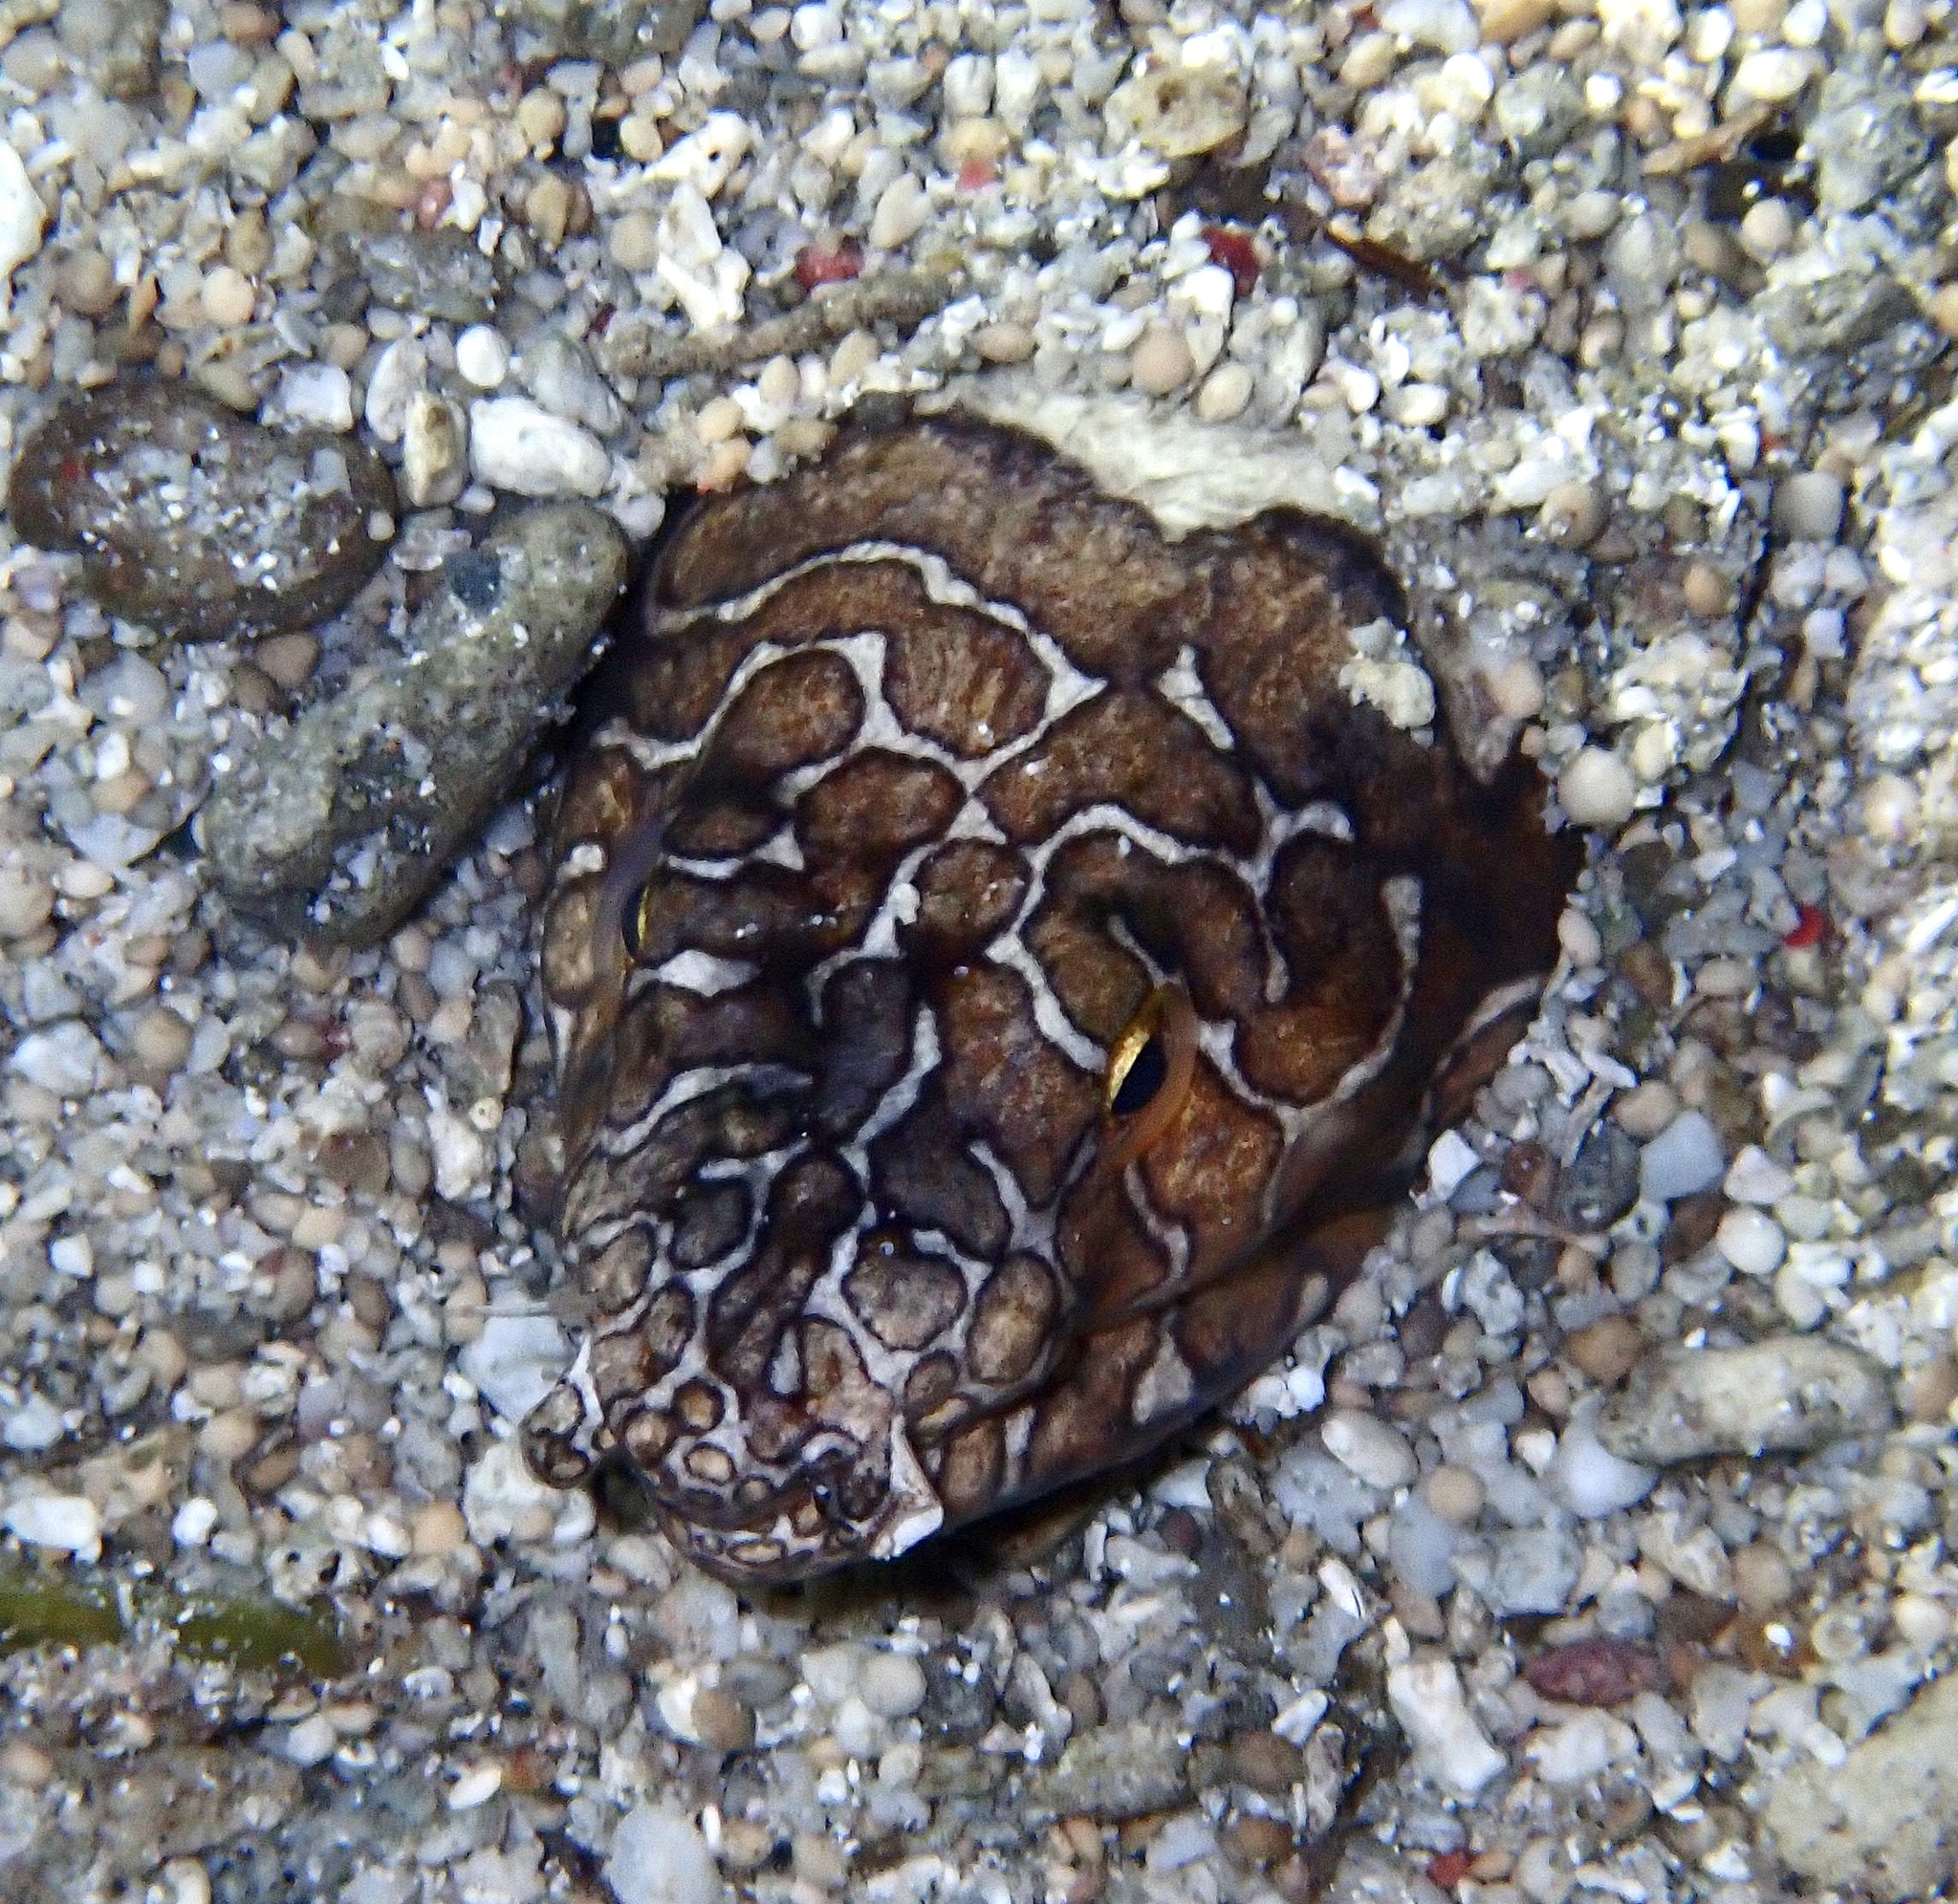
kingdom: Animalia
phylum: Chordata
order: Anguilliformes
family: Ophichthidae
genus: Ophichthus
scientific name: Ophichthus bonaparti
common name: Napoleon snake eel
